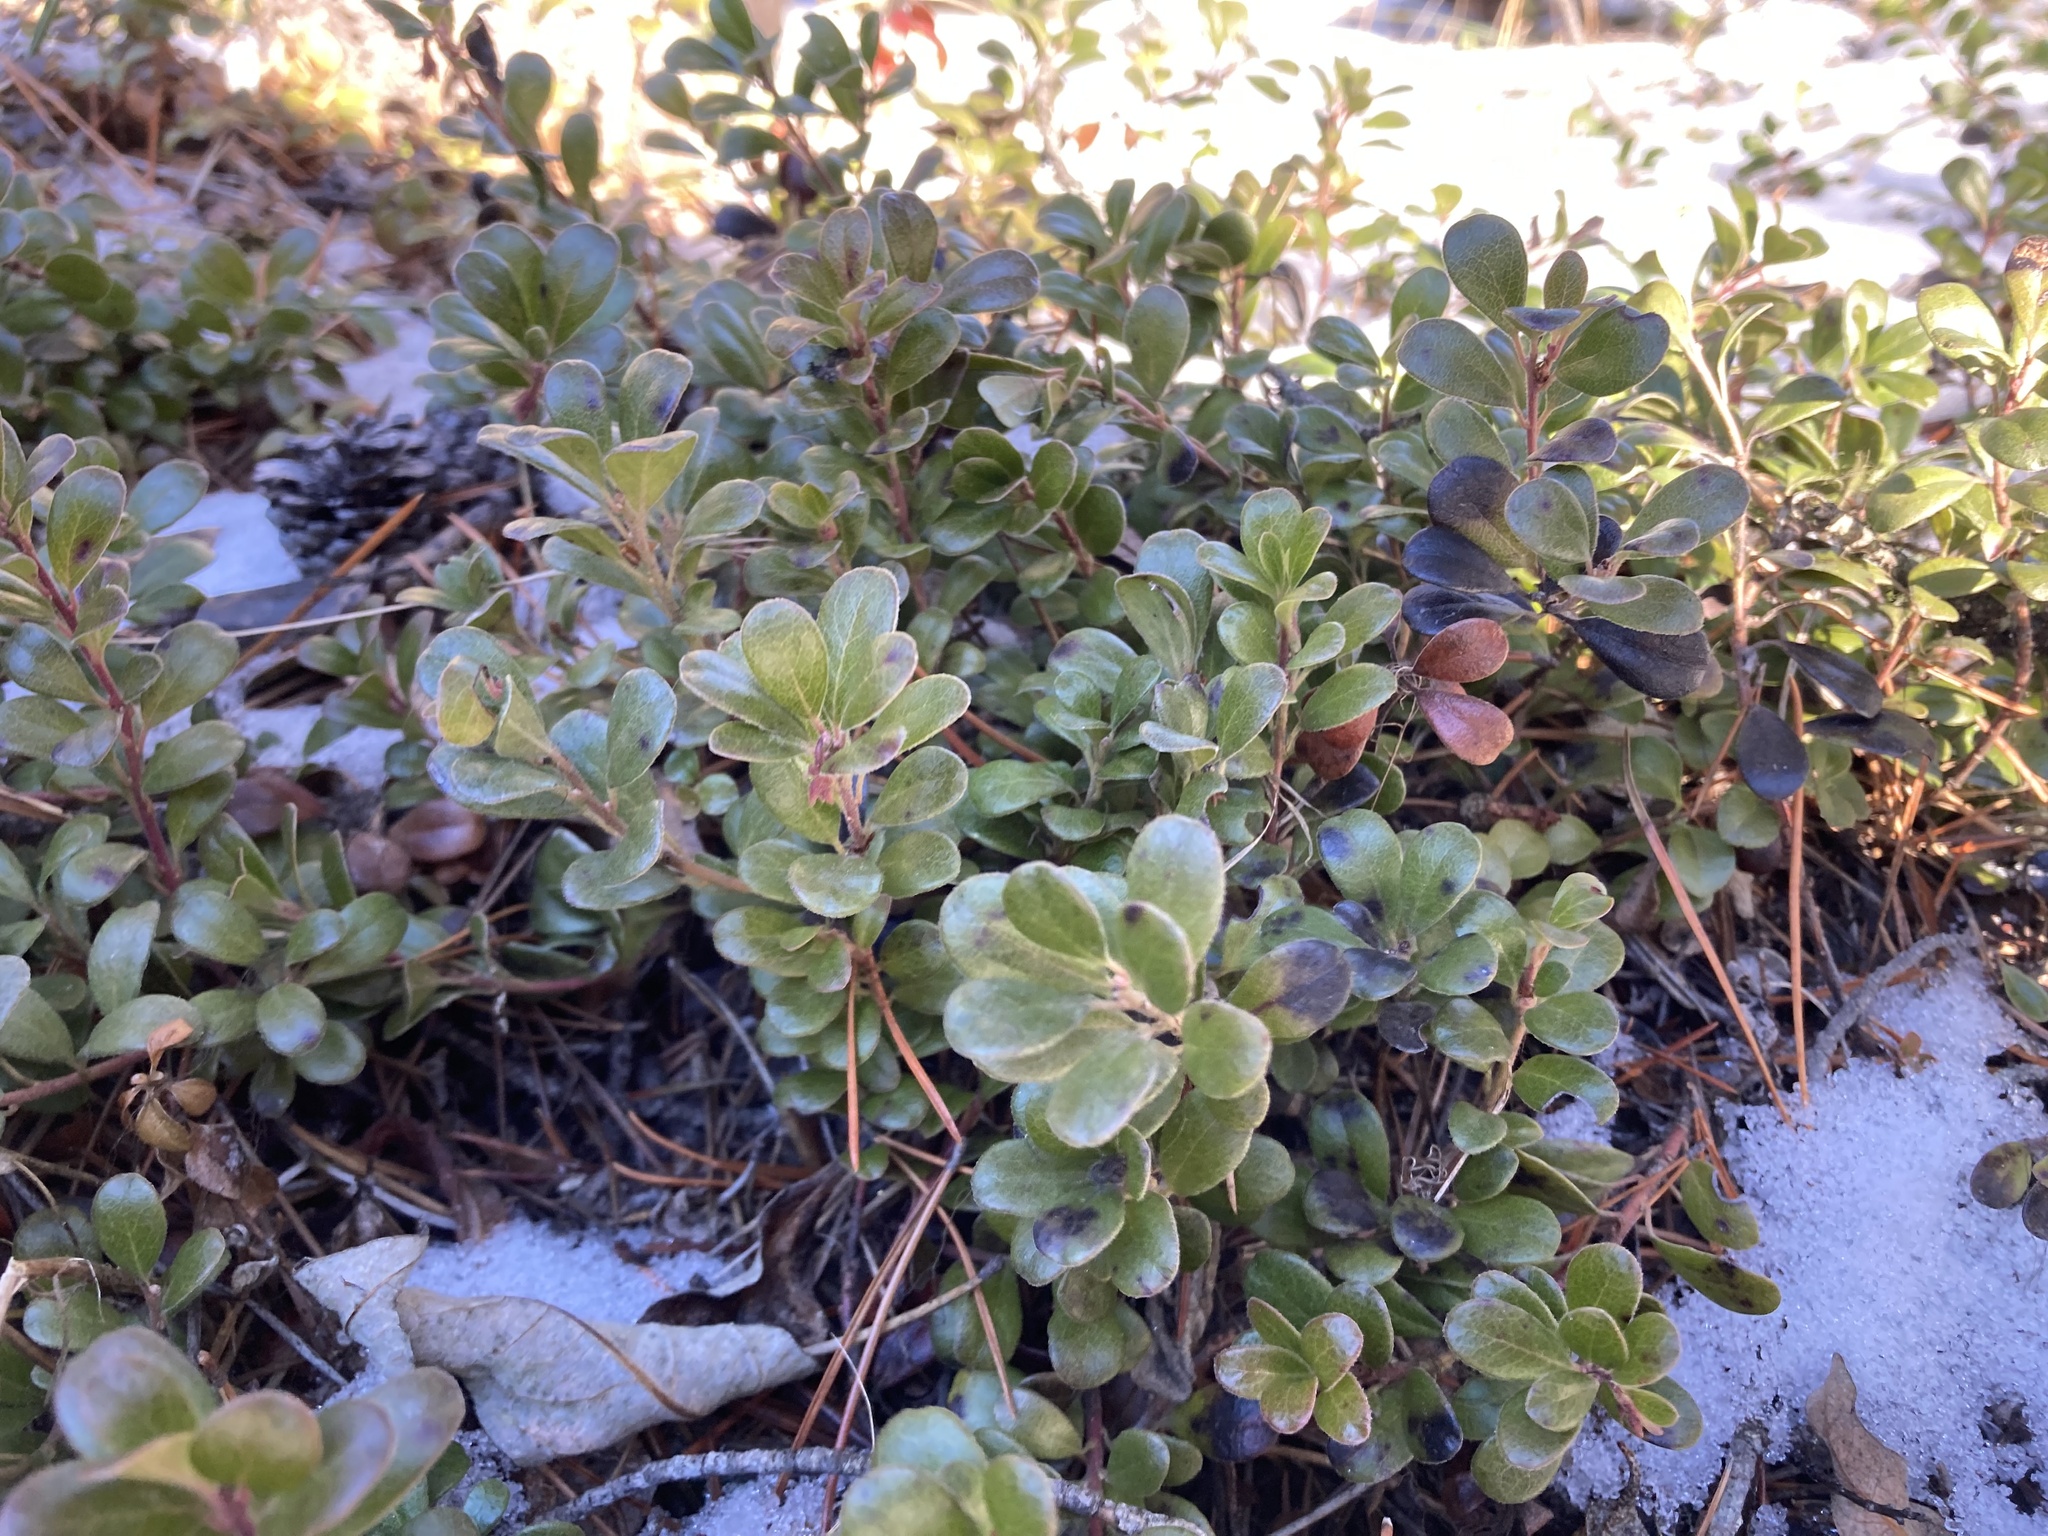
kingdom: Plantae
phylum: Tracheophyta
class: Magnoliopsida
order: Ericales
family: Ericaceae
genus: Arctostaphylos
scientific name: Arctostaphylos uva-ursi
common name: Bearberry
